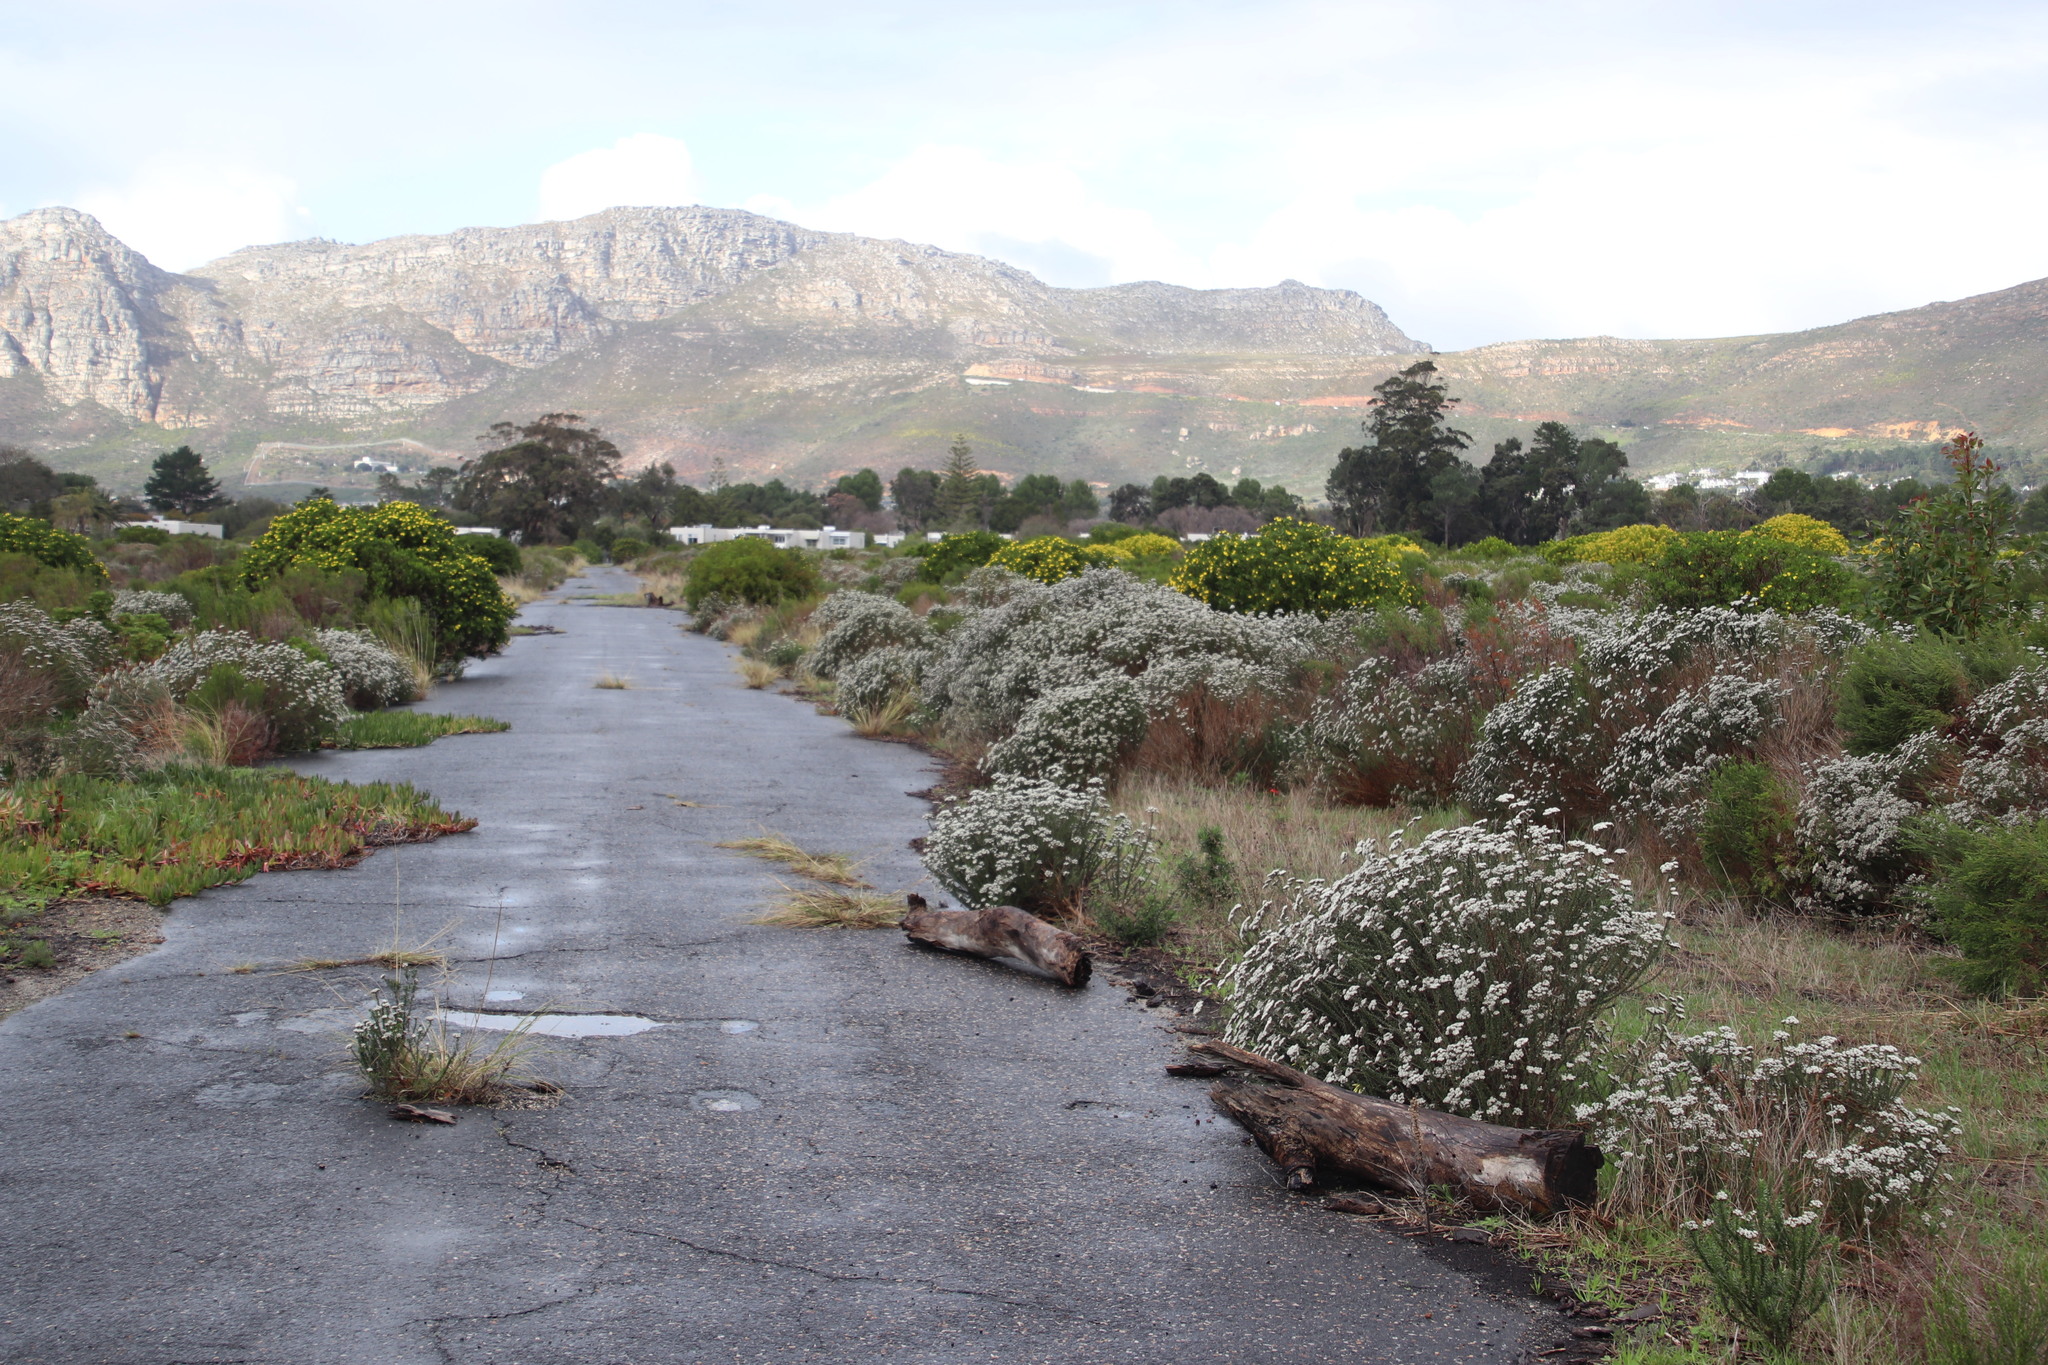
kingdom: Plantae
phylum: Tracheophyta
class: Magnoliopsida
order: Asterales
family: Asteraceae
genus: Osteospermum
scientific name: Osteospermum moniliferum
